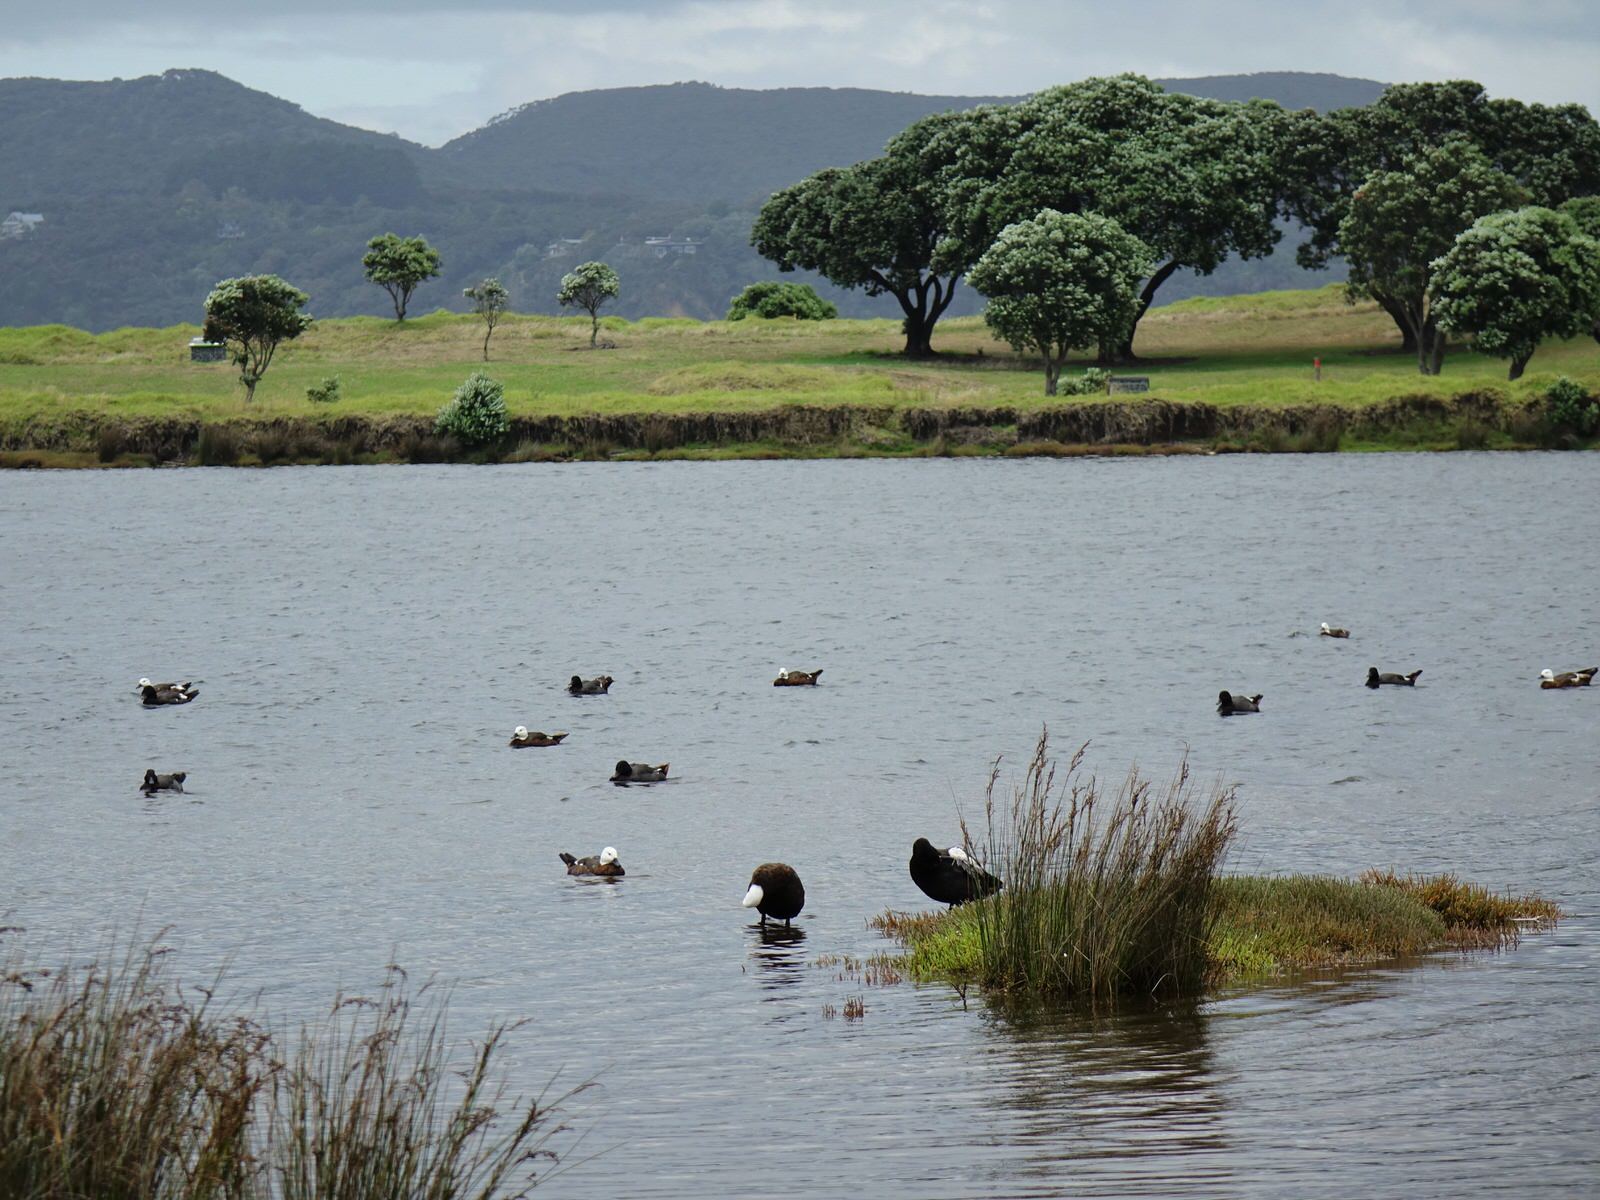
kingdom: Animalia
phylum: Chordata
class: Aves
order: Anseriformes
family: Anatidae
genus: Tadorna
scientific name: Tadorna variegata
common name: Paradise shelduck
